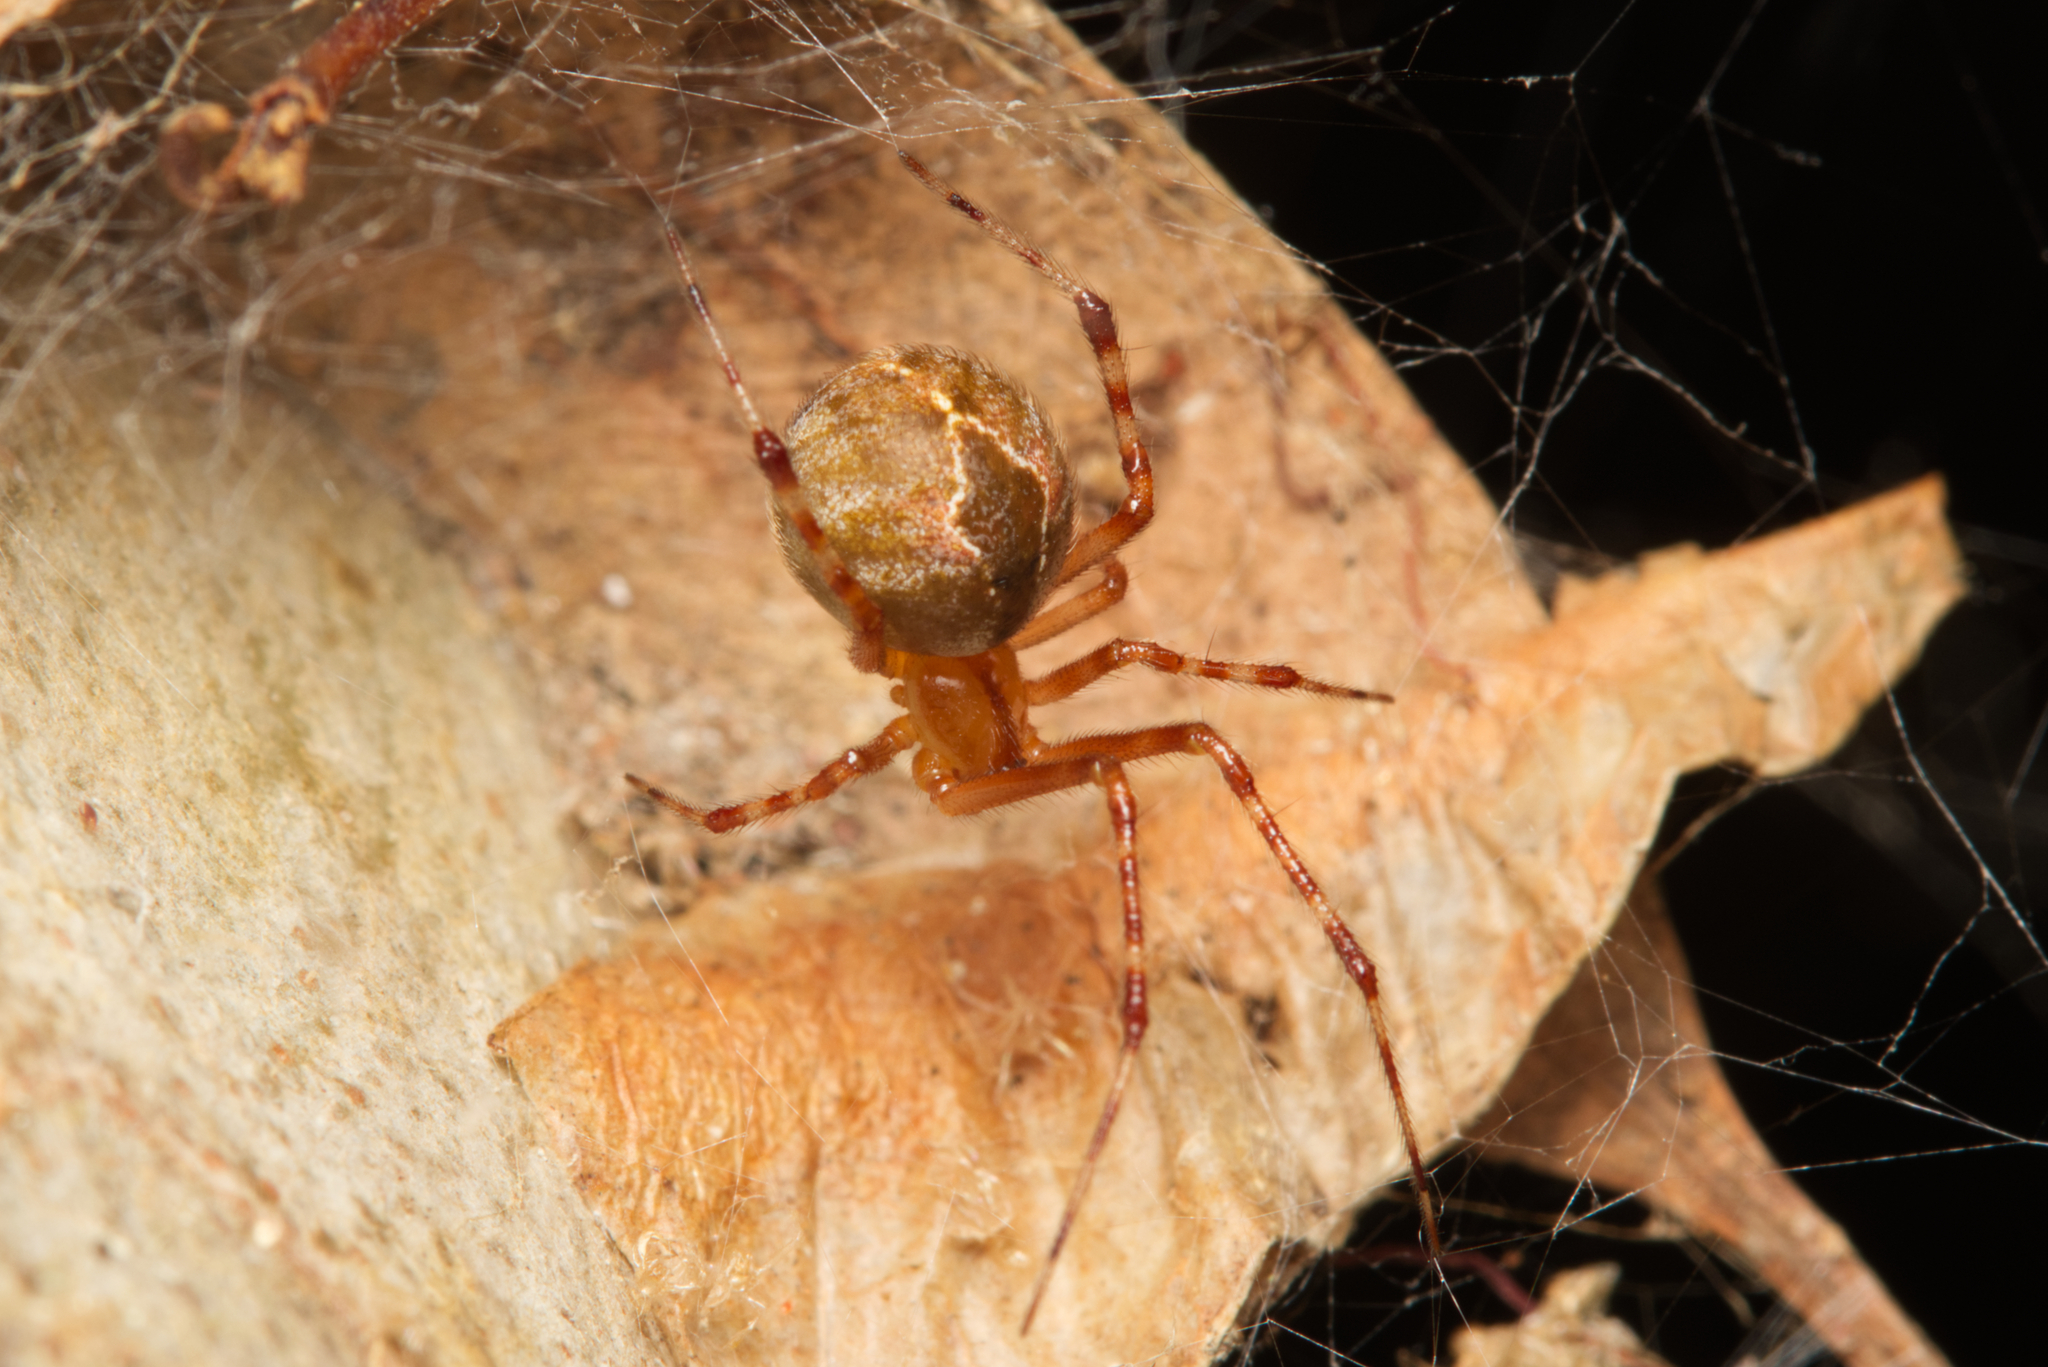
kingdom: Animalia
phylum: Arthropoda
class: Arachnida
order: Araneae
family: Theridiidae
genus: Cryptachaea
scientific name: Cryptachaea veruculata
